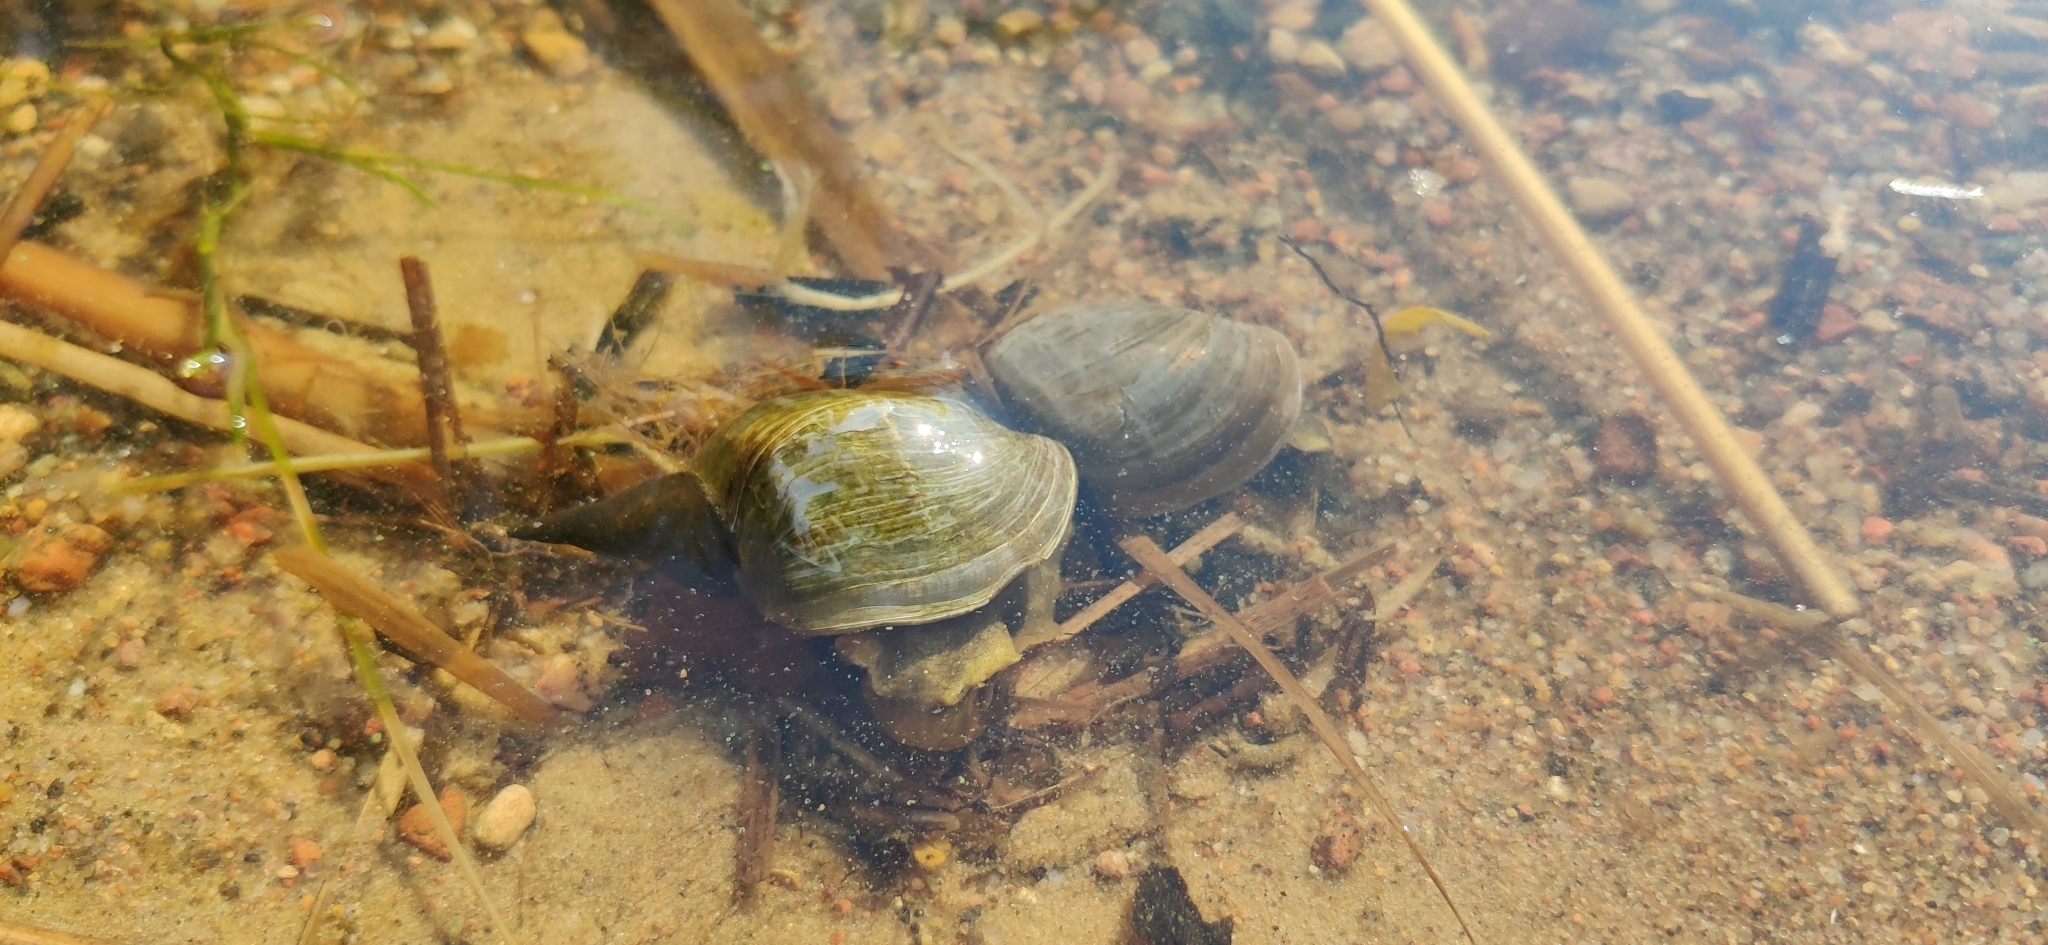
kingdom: Animalia
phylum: Mollusca
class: Gastropoda
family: Lymnaeidae
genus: Lymnaea
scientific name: Lymnaea stagnalis
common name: Great pond snail
